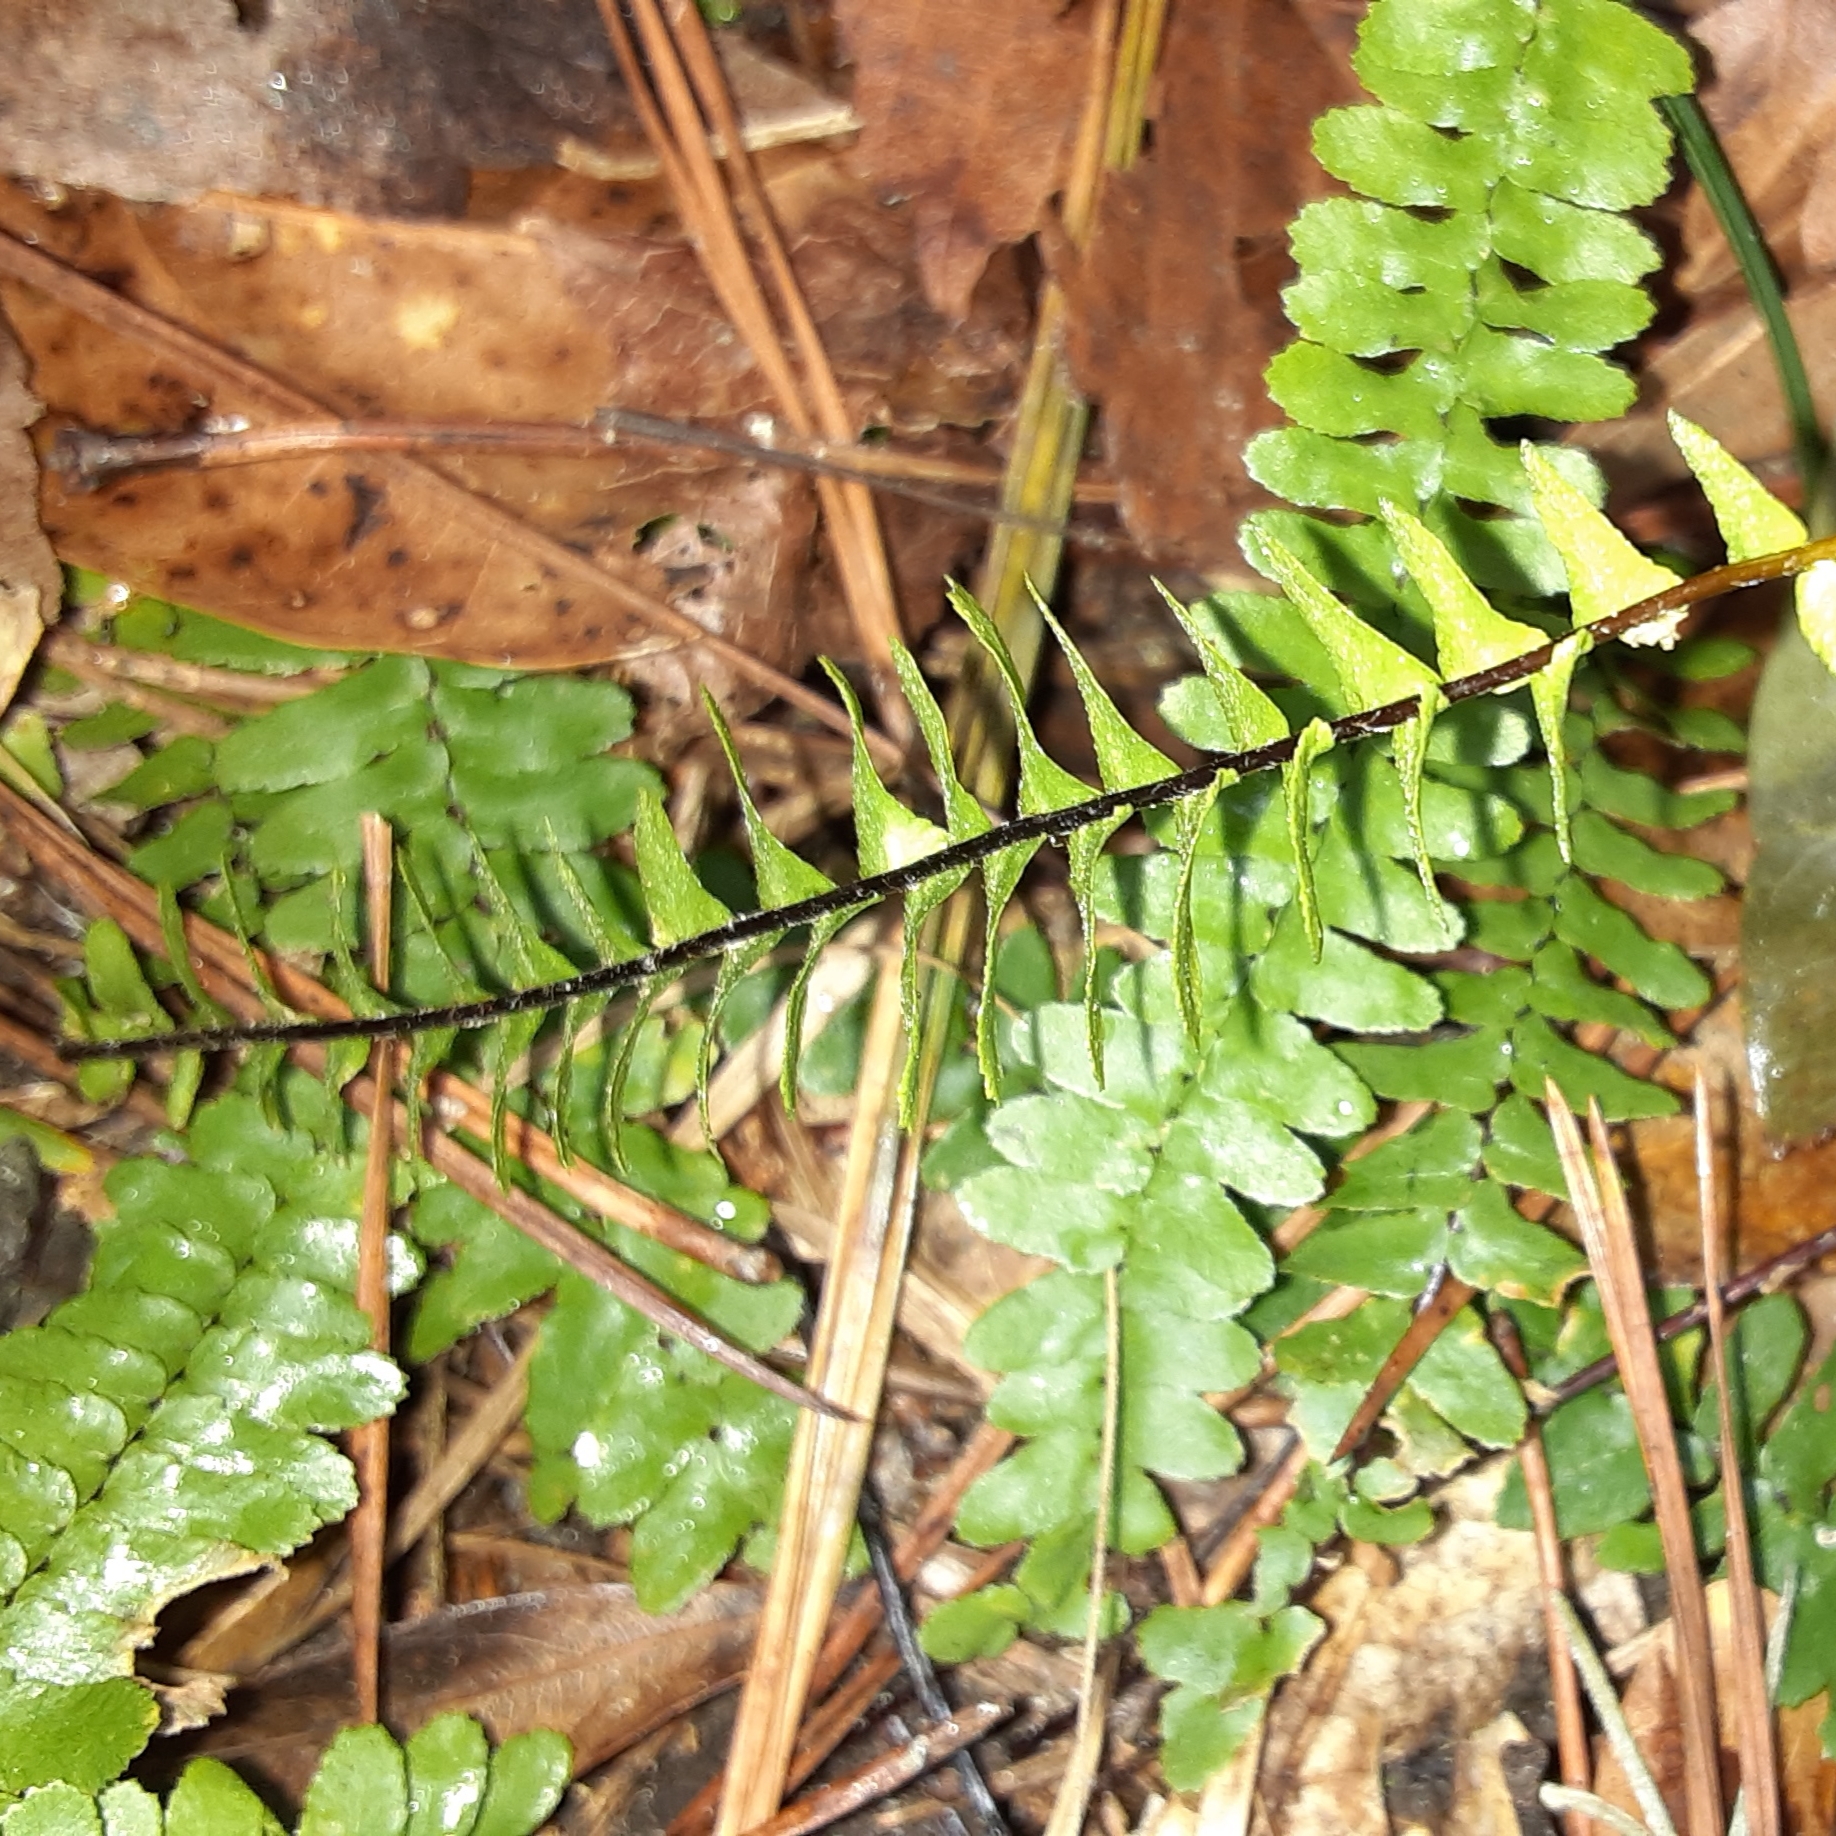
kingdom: Plantae
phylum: Tracheophyta
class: Polypodiopsida
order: Polypodiales
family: Aspleniaceae
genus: Asplenium
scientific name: Asplenium platyneuron
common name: Ebony spleenwort
